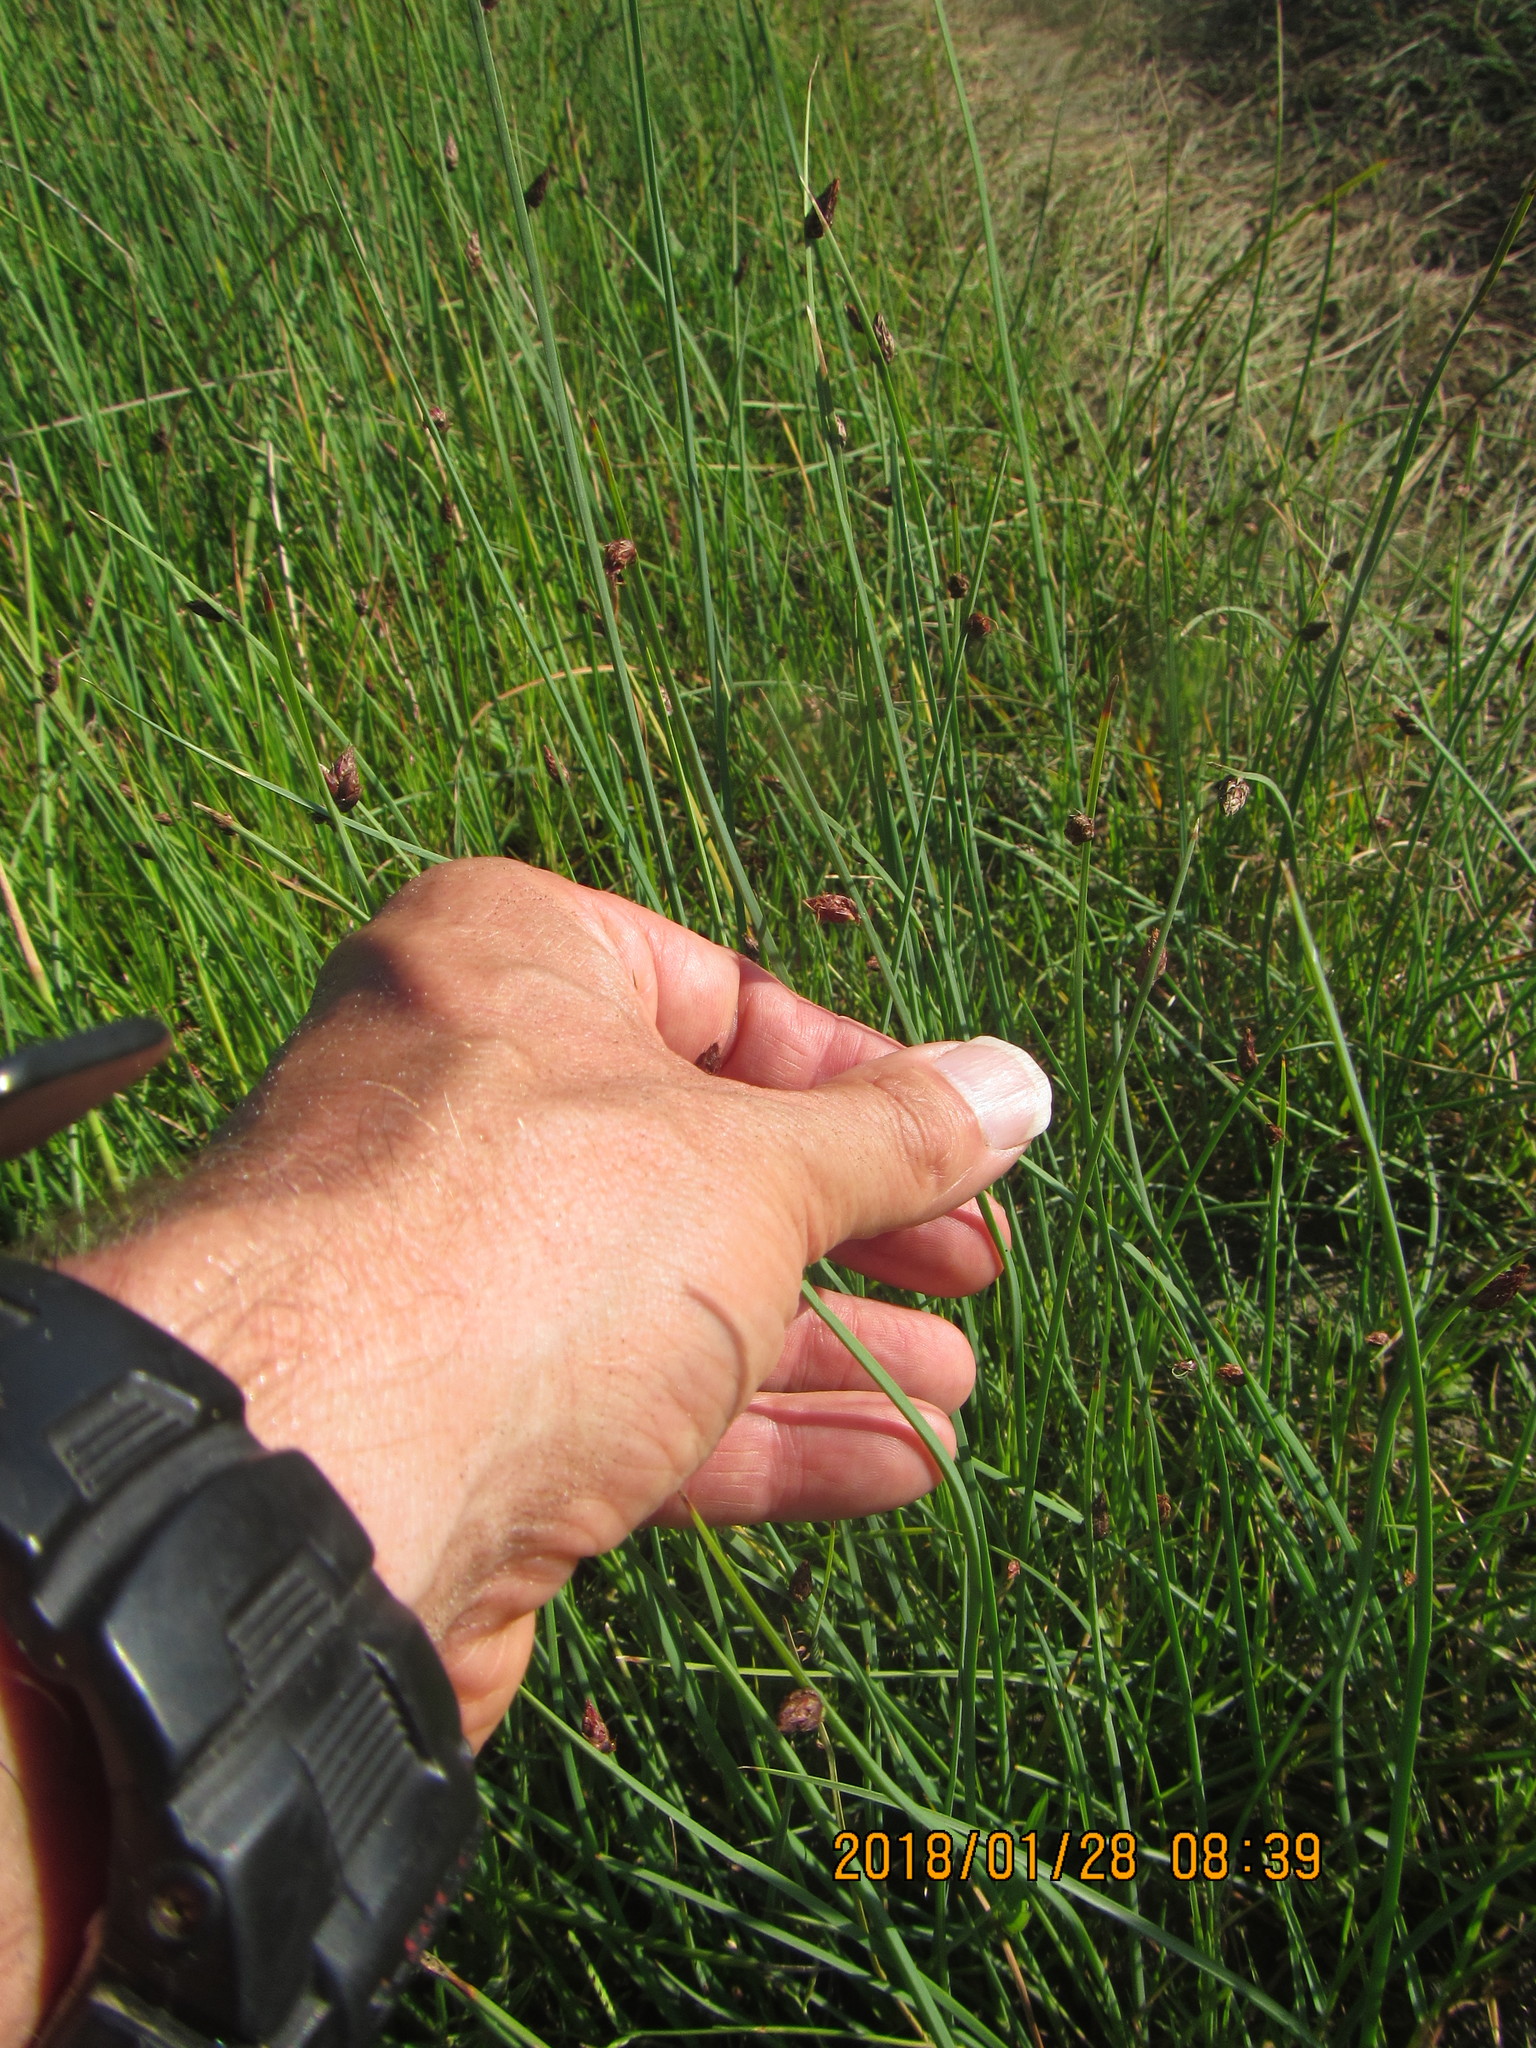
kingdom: Plantae
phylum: Tracheophyta
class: Liliopsida
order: Poales
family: Cyperaceae
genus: Schoenoplectus
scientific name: Schoenoplectus pungens
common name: Sharp club-rush
